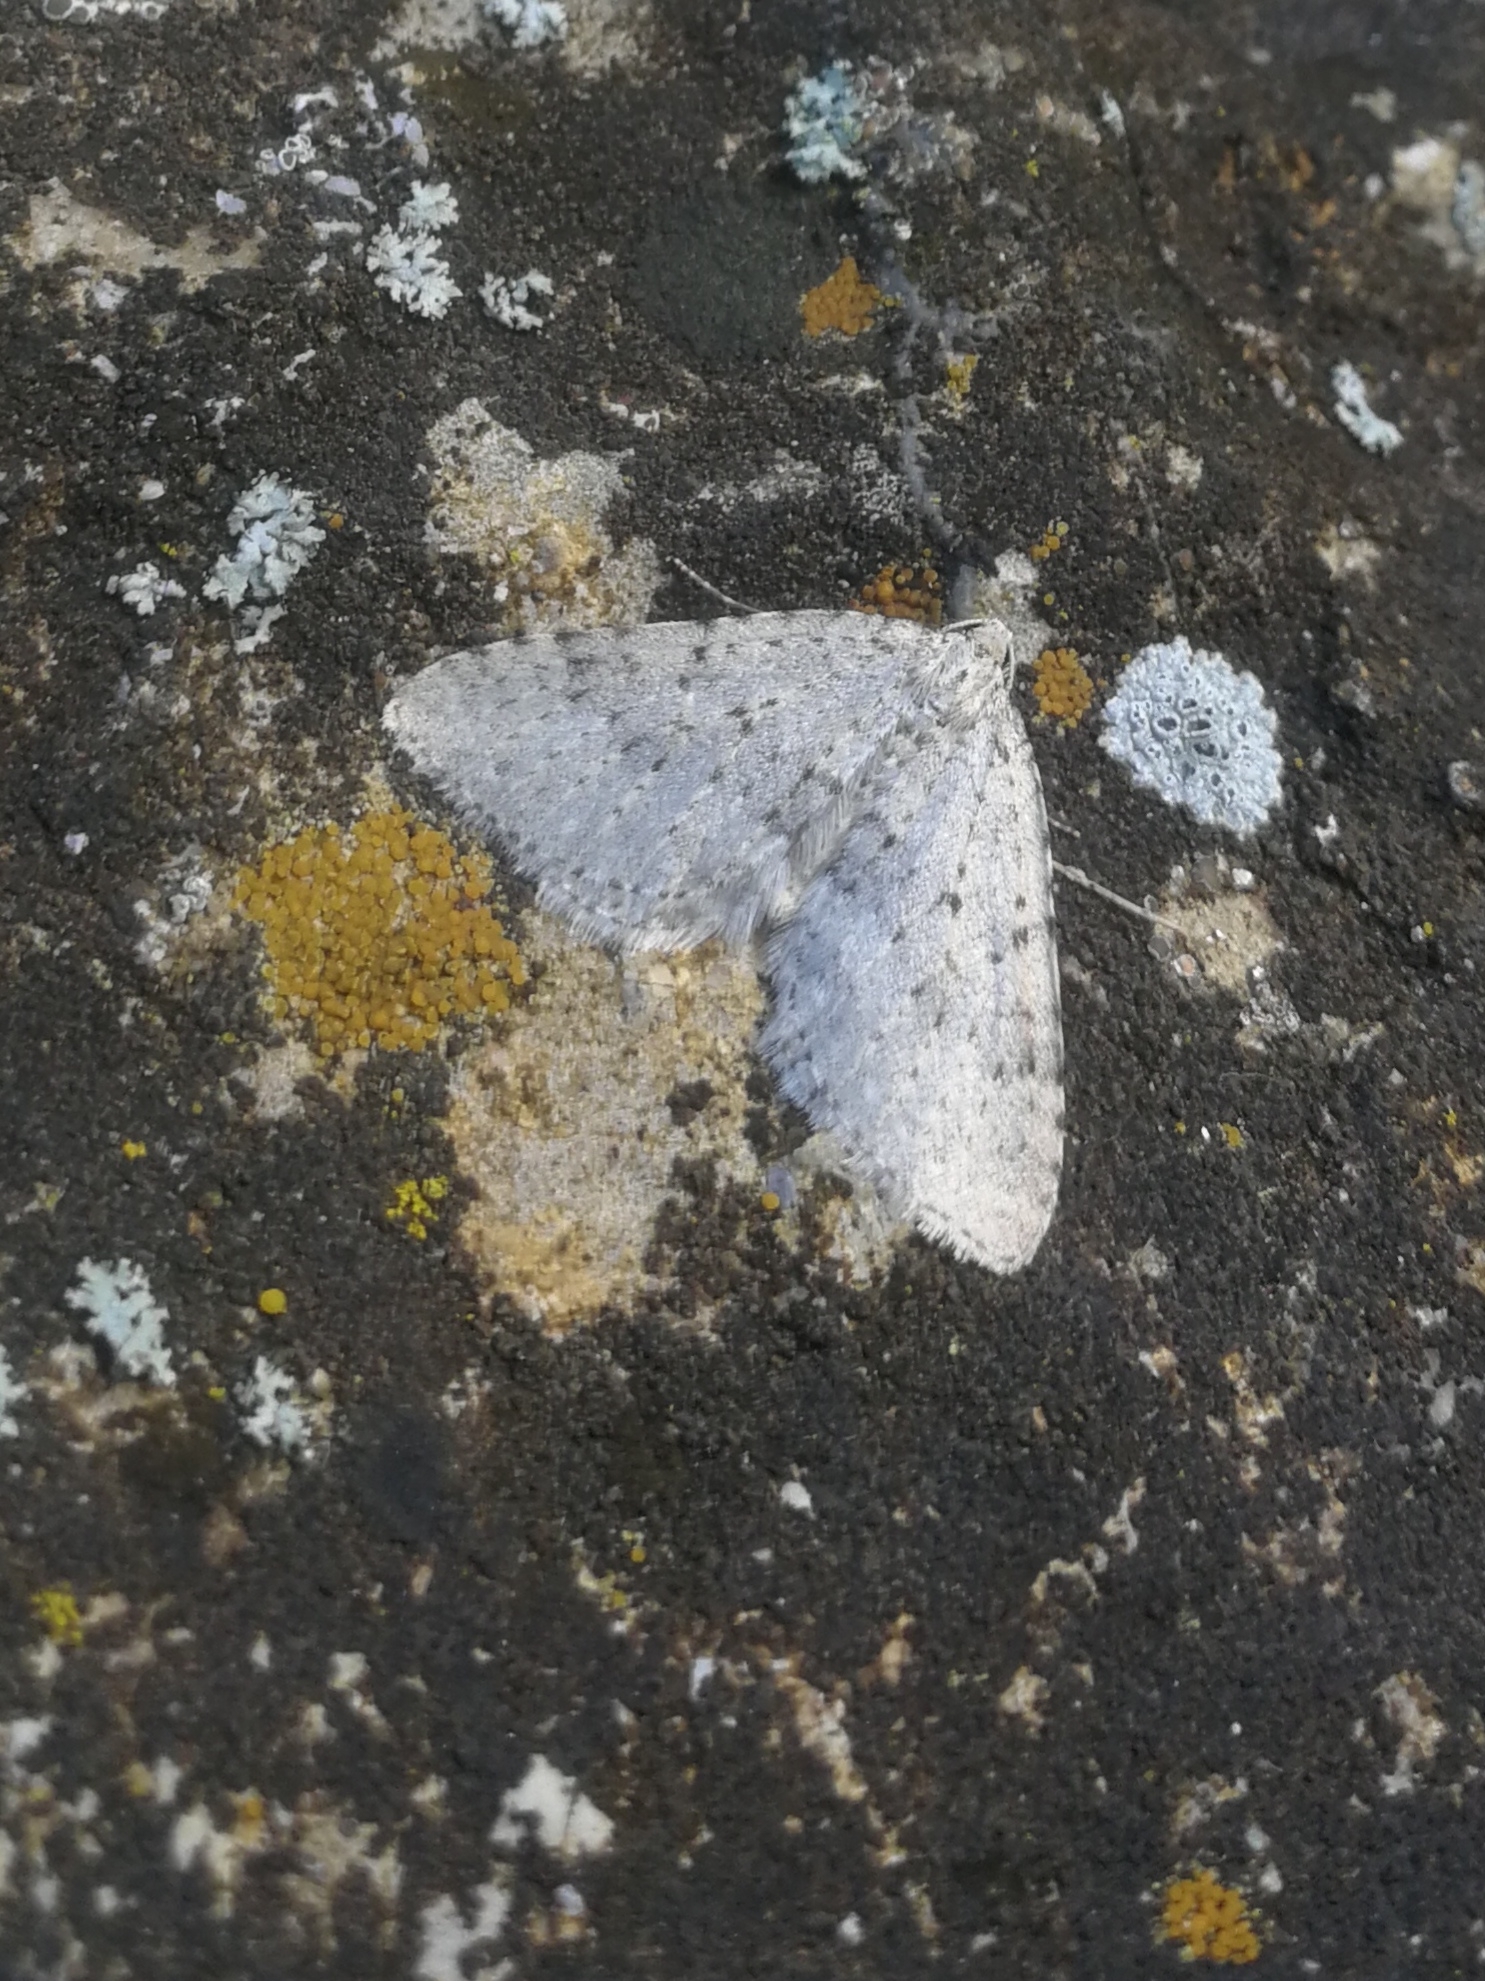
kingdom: Animalia
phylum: Arthropoda
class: Insecta
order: Lepidoptera
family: Geometridae
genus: Colostygia
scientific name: Colostygia multistrigaria
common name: Mottled grey
